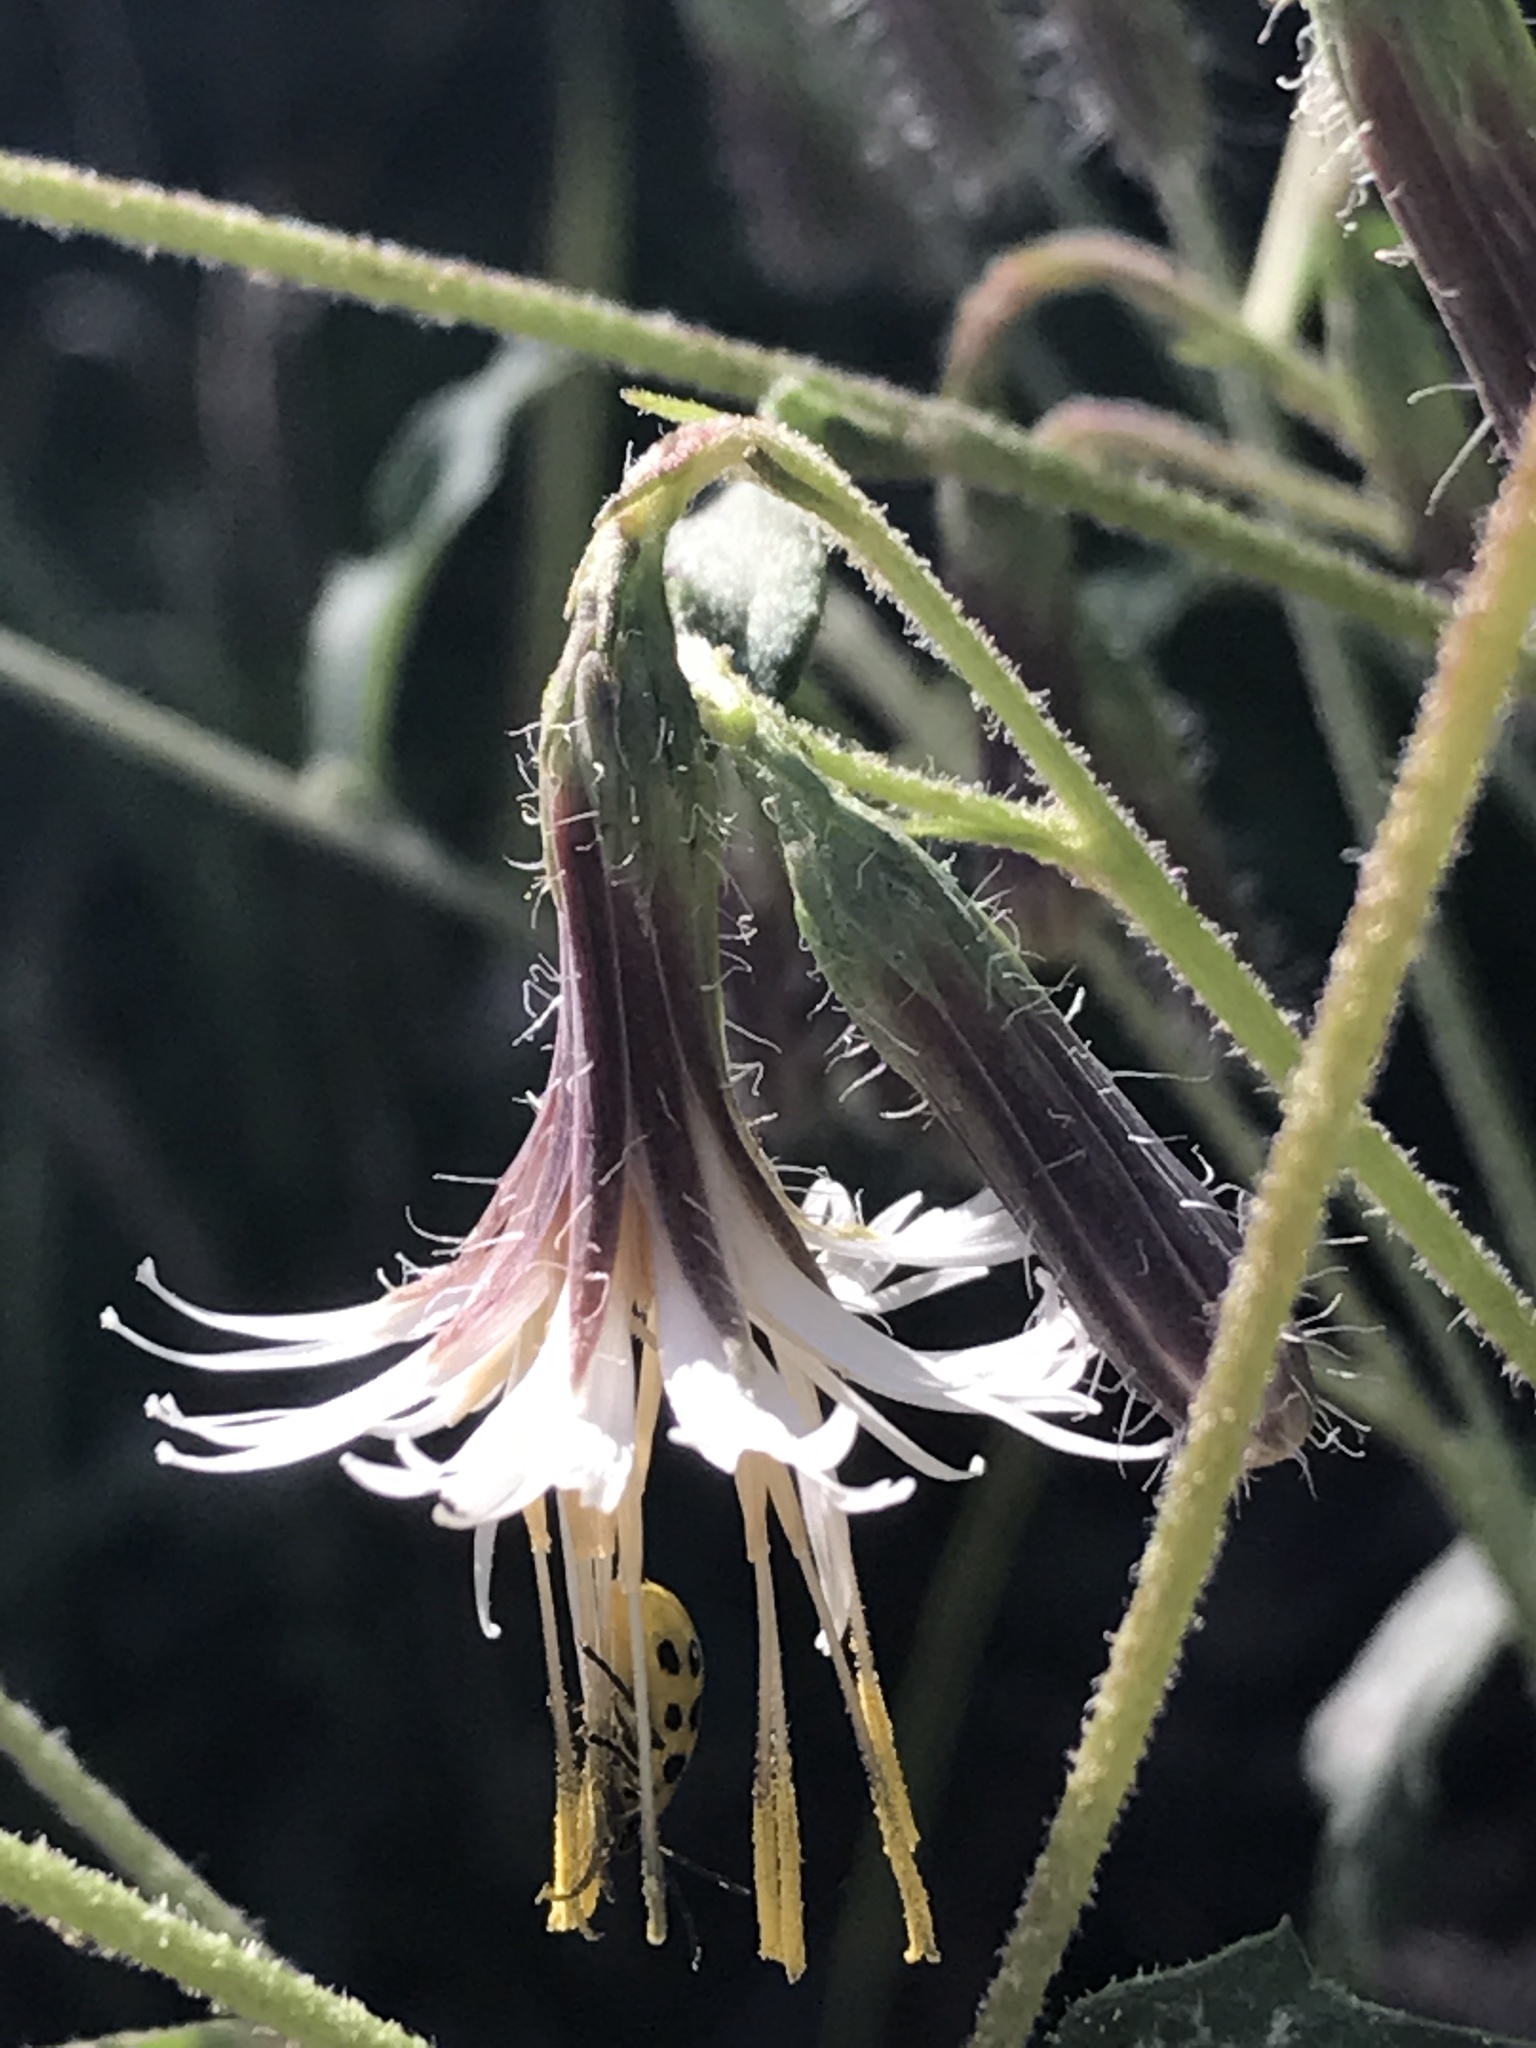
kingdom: Plantae
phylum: Tracheophyta
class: Magnoliopsida
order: Asterales
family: Asteraceae
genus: Nabalus
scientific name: Nabalus barbata
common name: Barbed rattlesnakeroot
